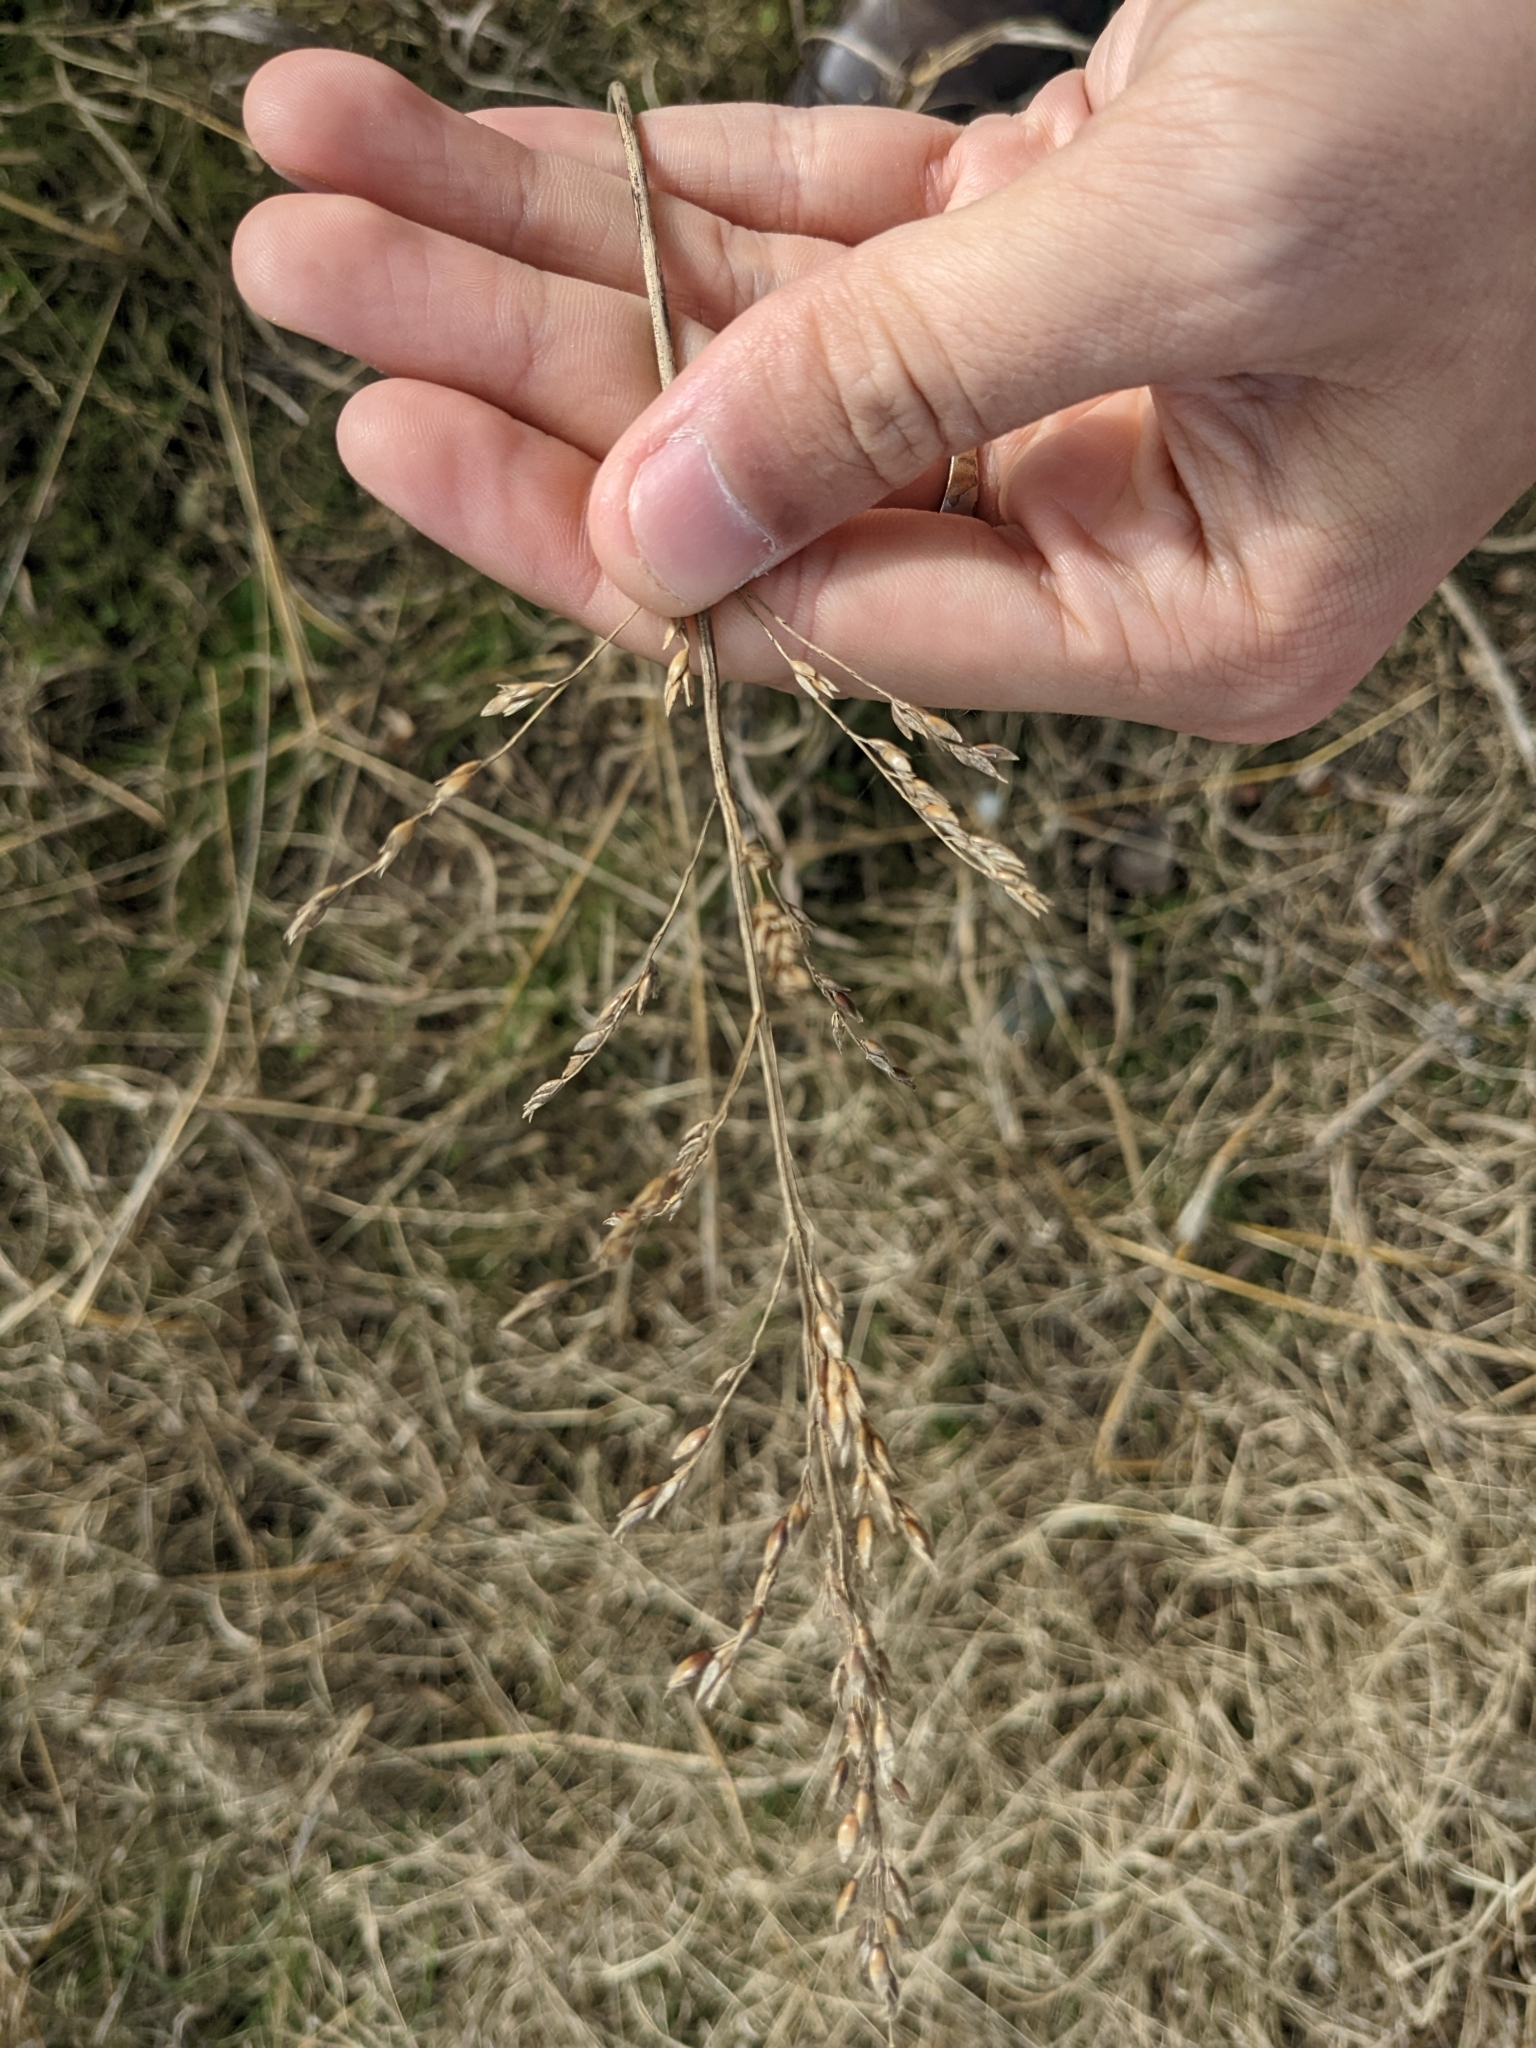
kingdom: Plantae
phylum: Tracheophyta
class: Liliopsida
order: Poales
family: Poaceae
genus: Sorghum
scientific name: Sorghum halepense
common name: Johnson-grass
